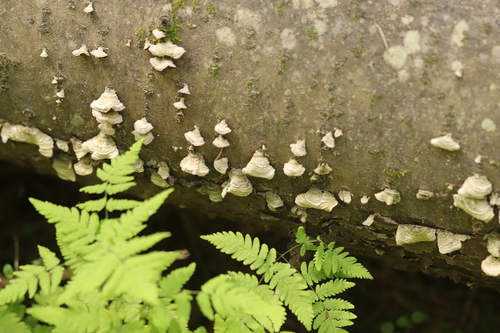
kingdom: Fungi
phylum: Basidiomycota
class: Agaricomycetes
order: Hymenochaetales
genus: Trichaptum
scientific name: Trichaptum fuscoviolaceum
